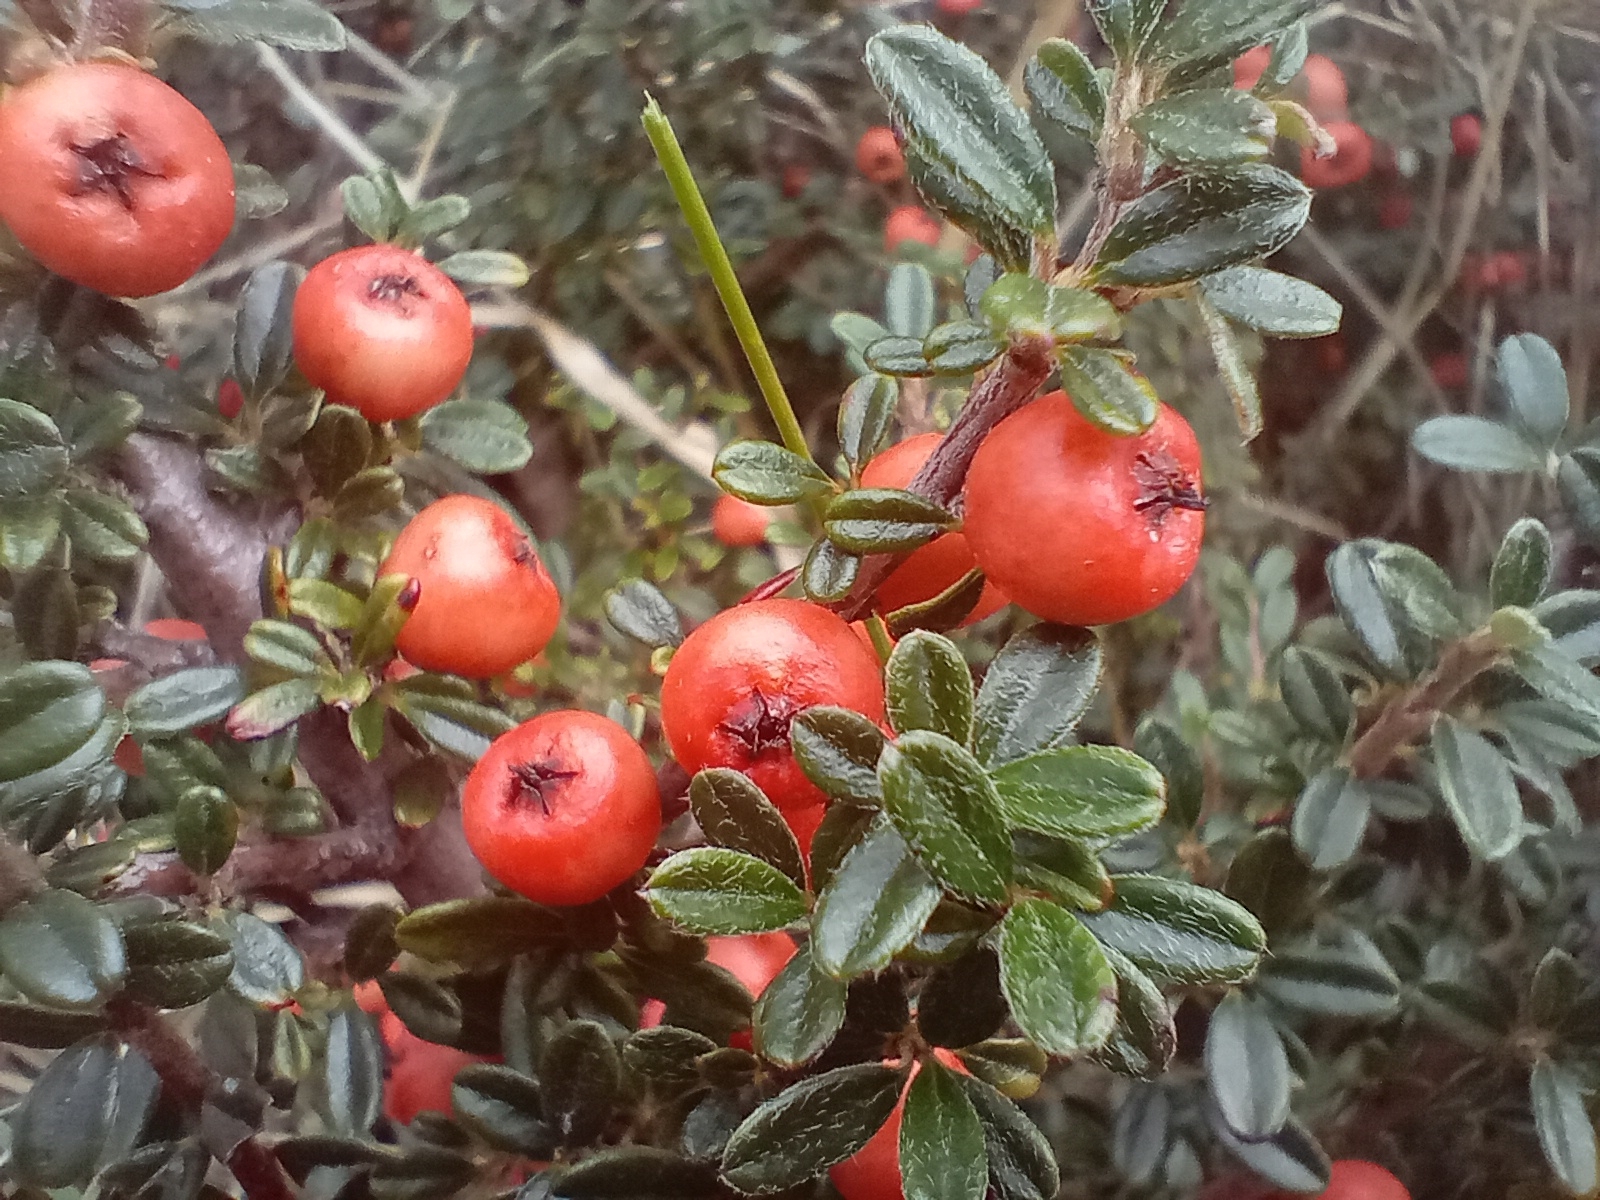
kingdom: Plantae
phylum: Tracheophyta
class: Magnoliopsida
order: Rosales
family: Rosaceae
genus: Cotoneaster
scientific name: Cotoneaster microphyllus
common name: Small-leaved cotoneaster
